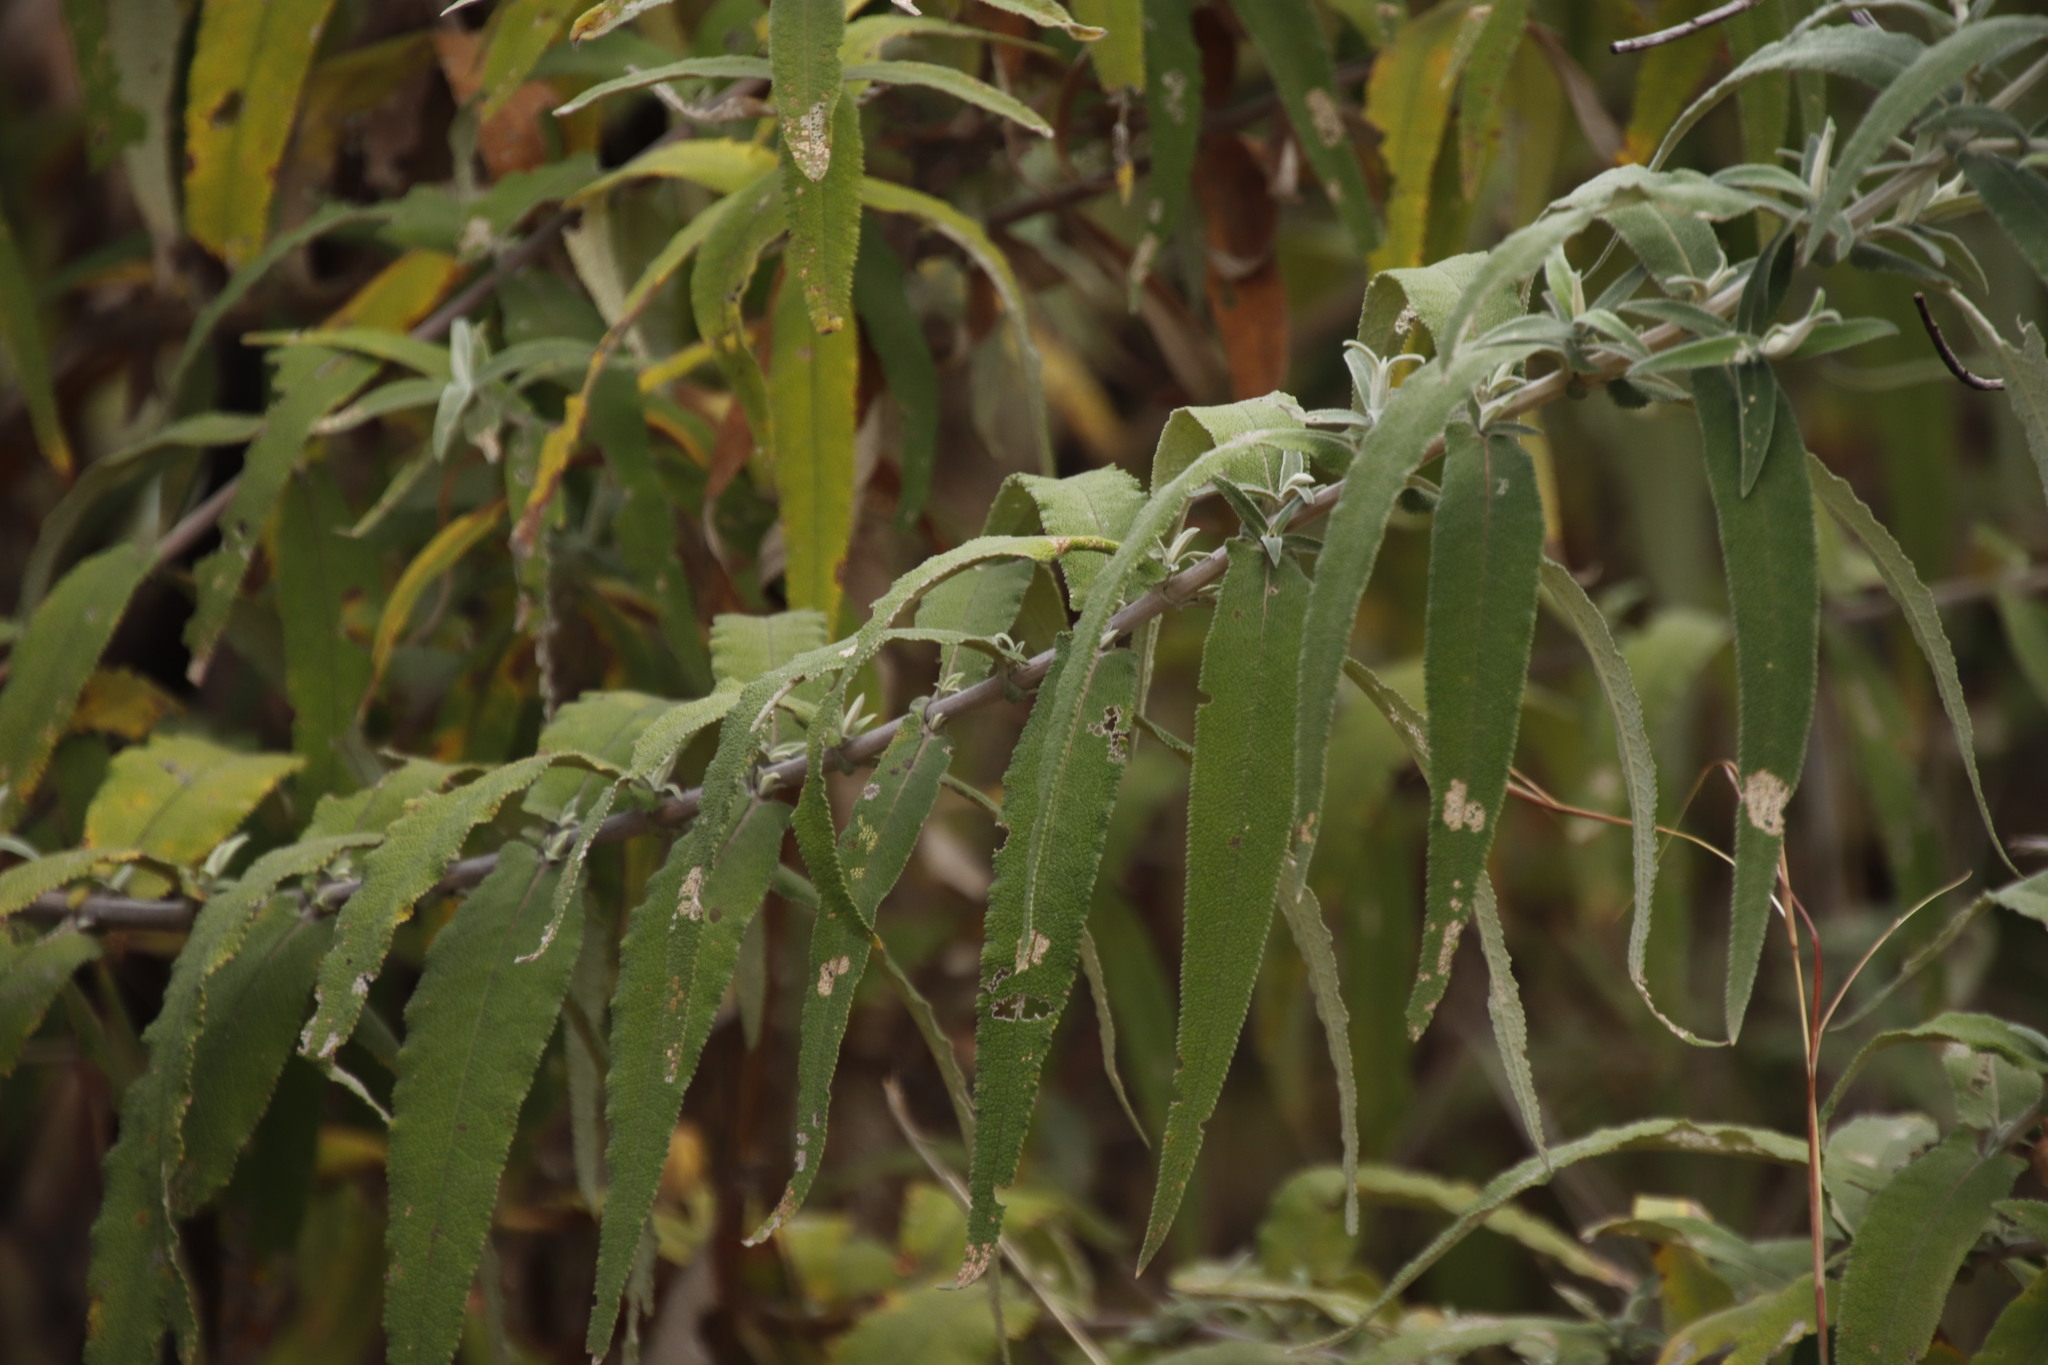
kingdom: Plantae
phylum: Tracheophyta
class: Magnoliopsida
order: Lamiales
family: Scrophulariaceae
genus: Buddleja
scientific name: Buddleja salviifolia
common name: Sagewood
